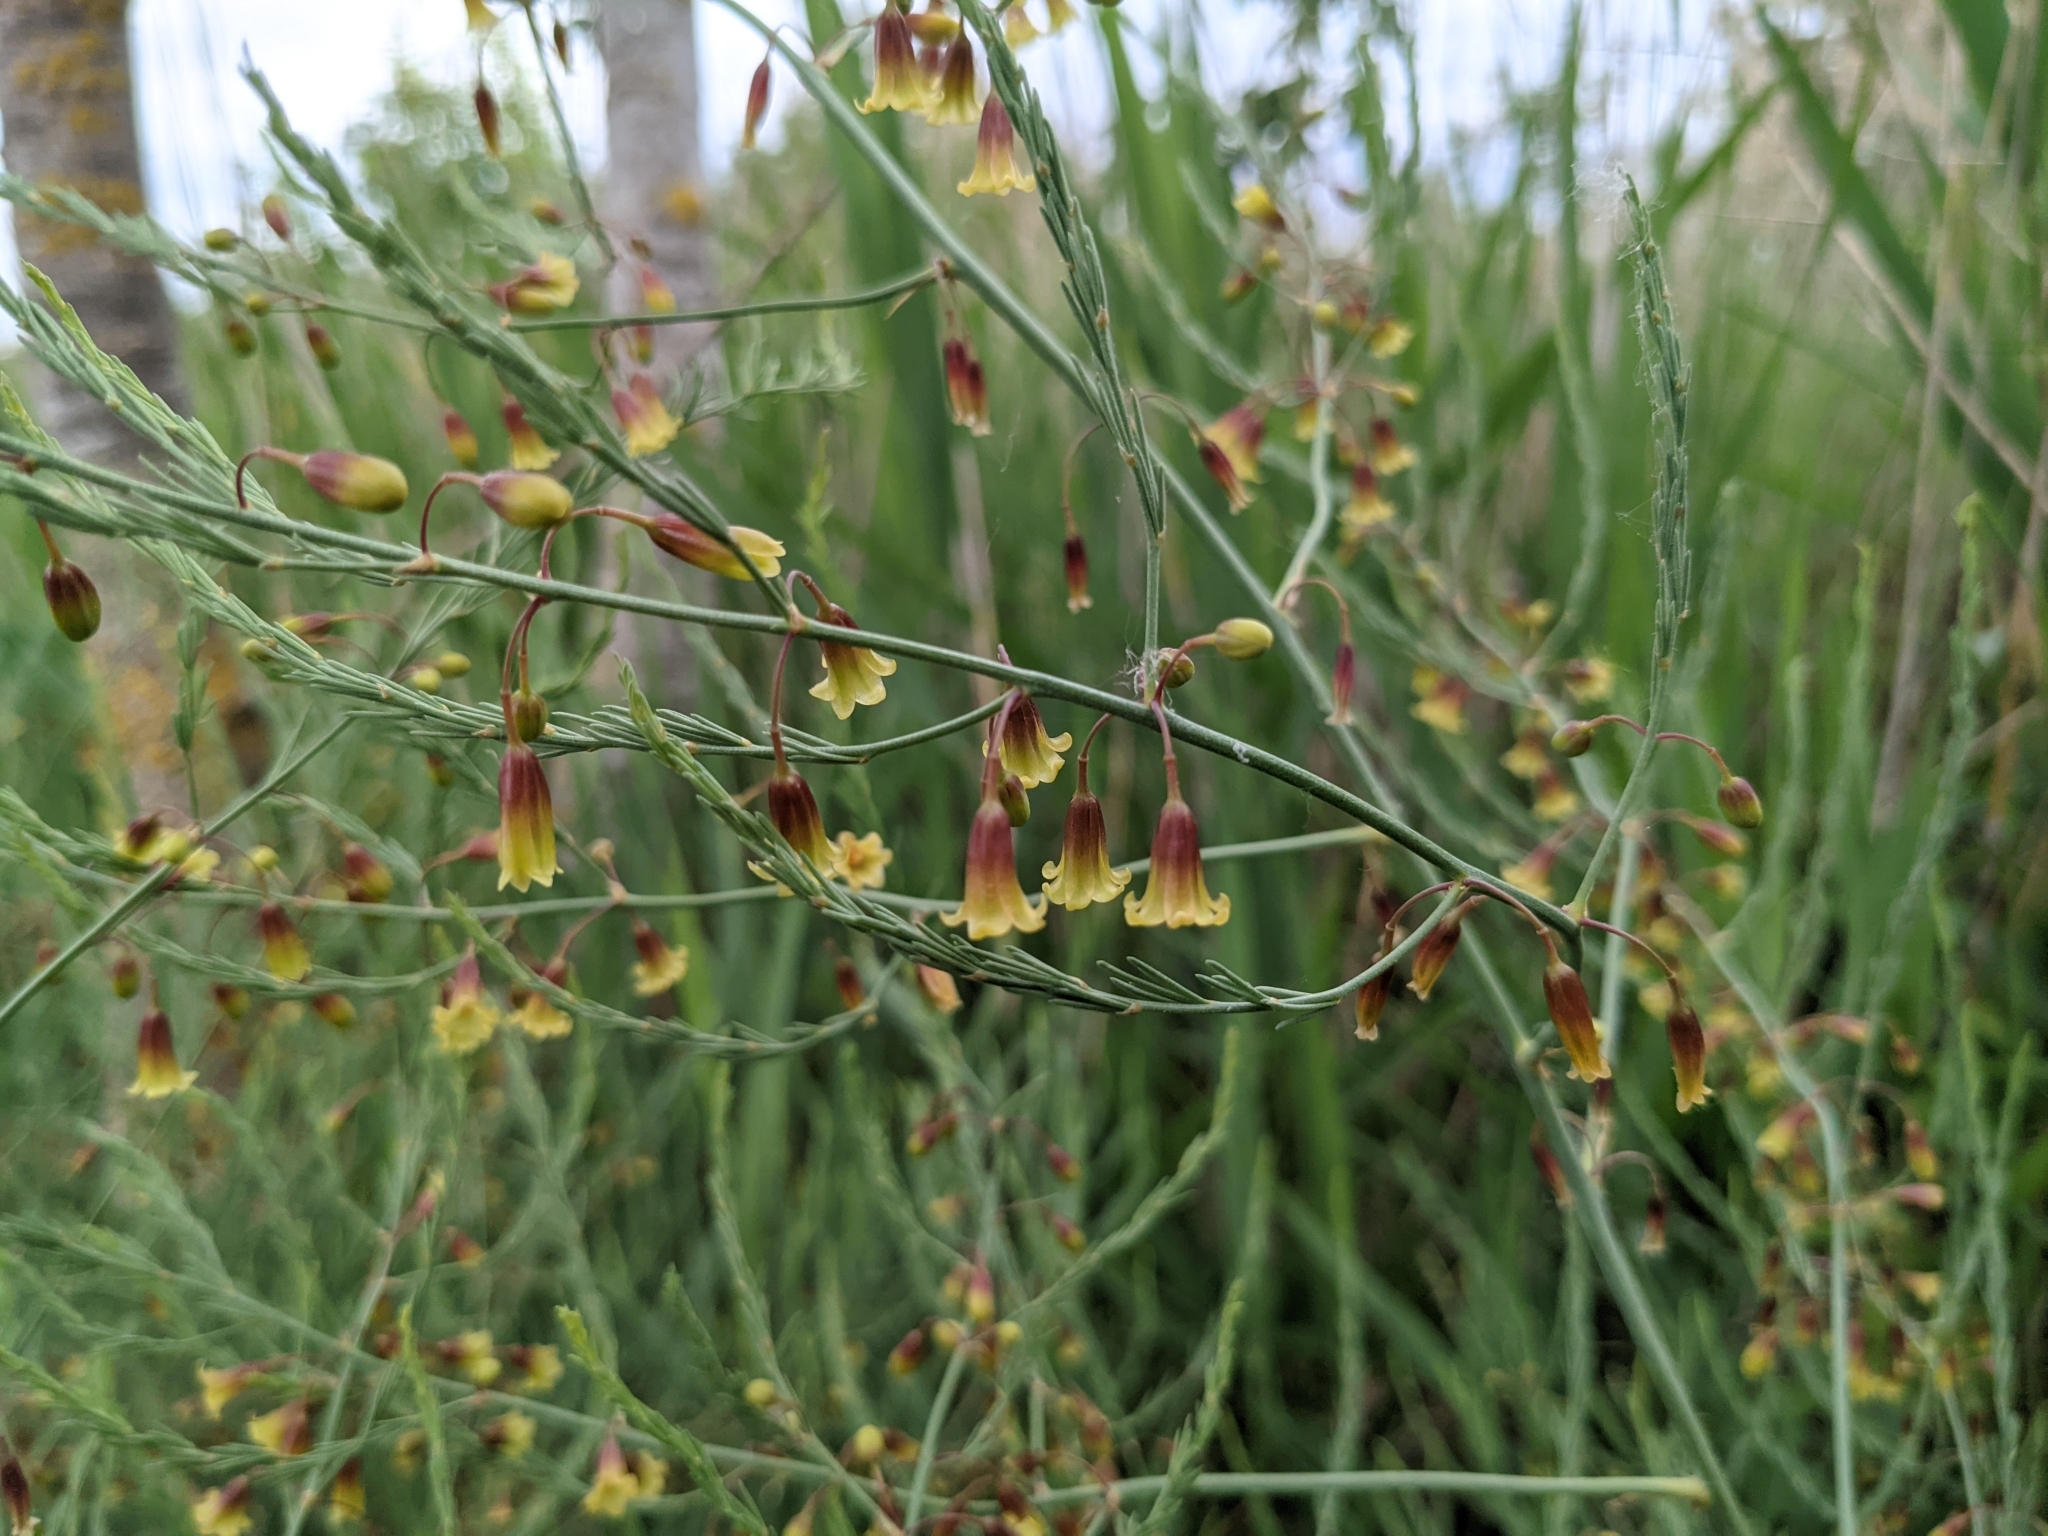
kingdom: Plantae
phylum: Tracheophyta
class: Liliopsida
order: Asparagales
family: Asparagaceae
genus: Asparagus
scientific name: Asparagus maritimus
